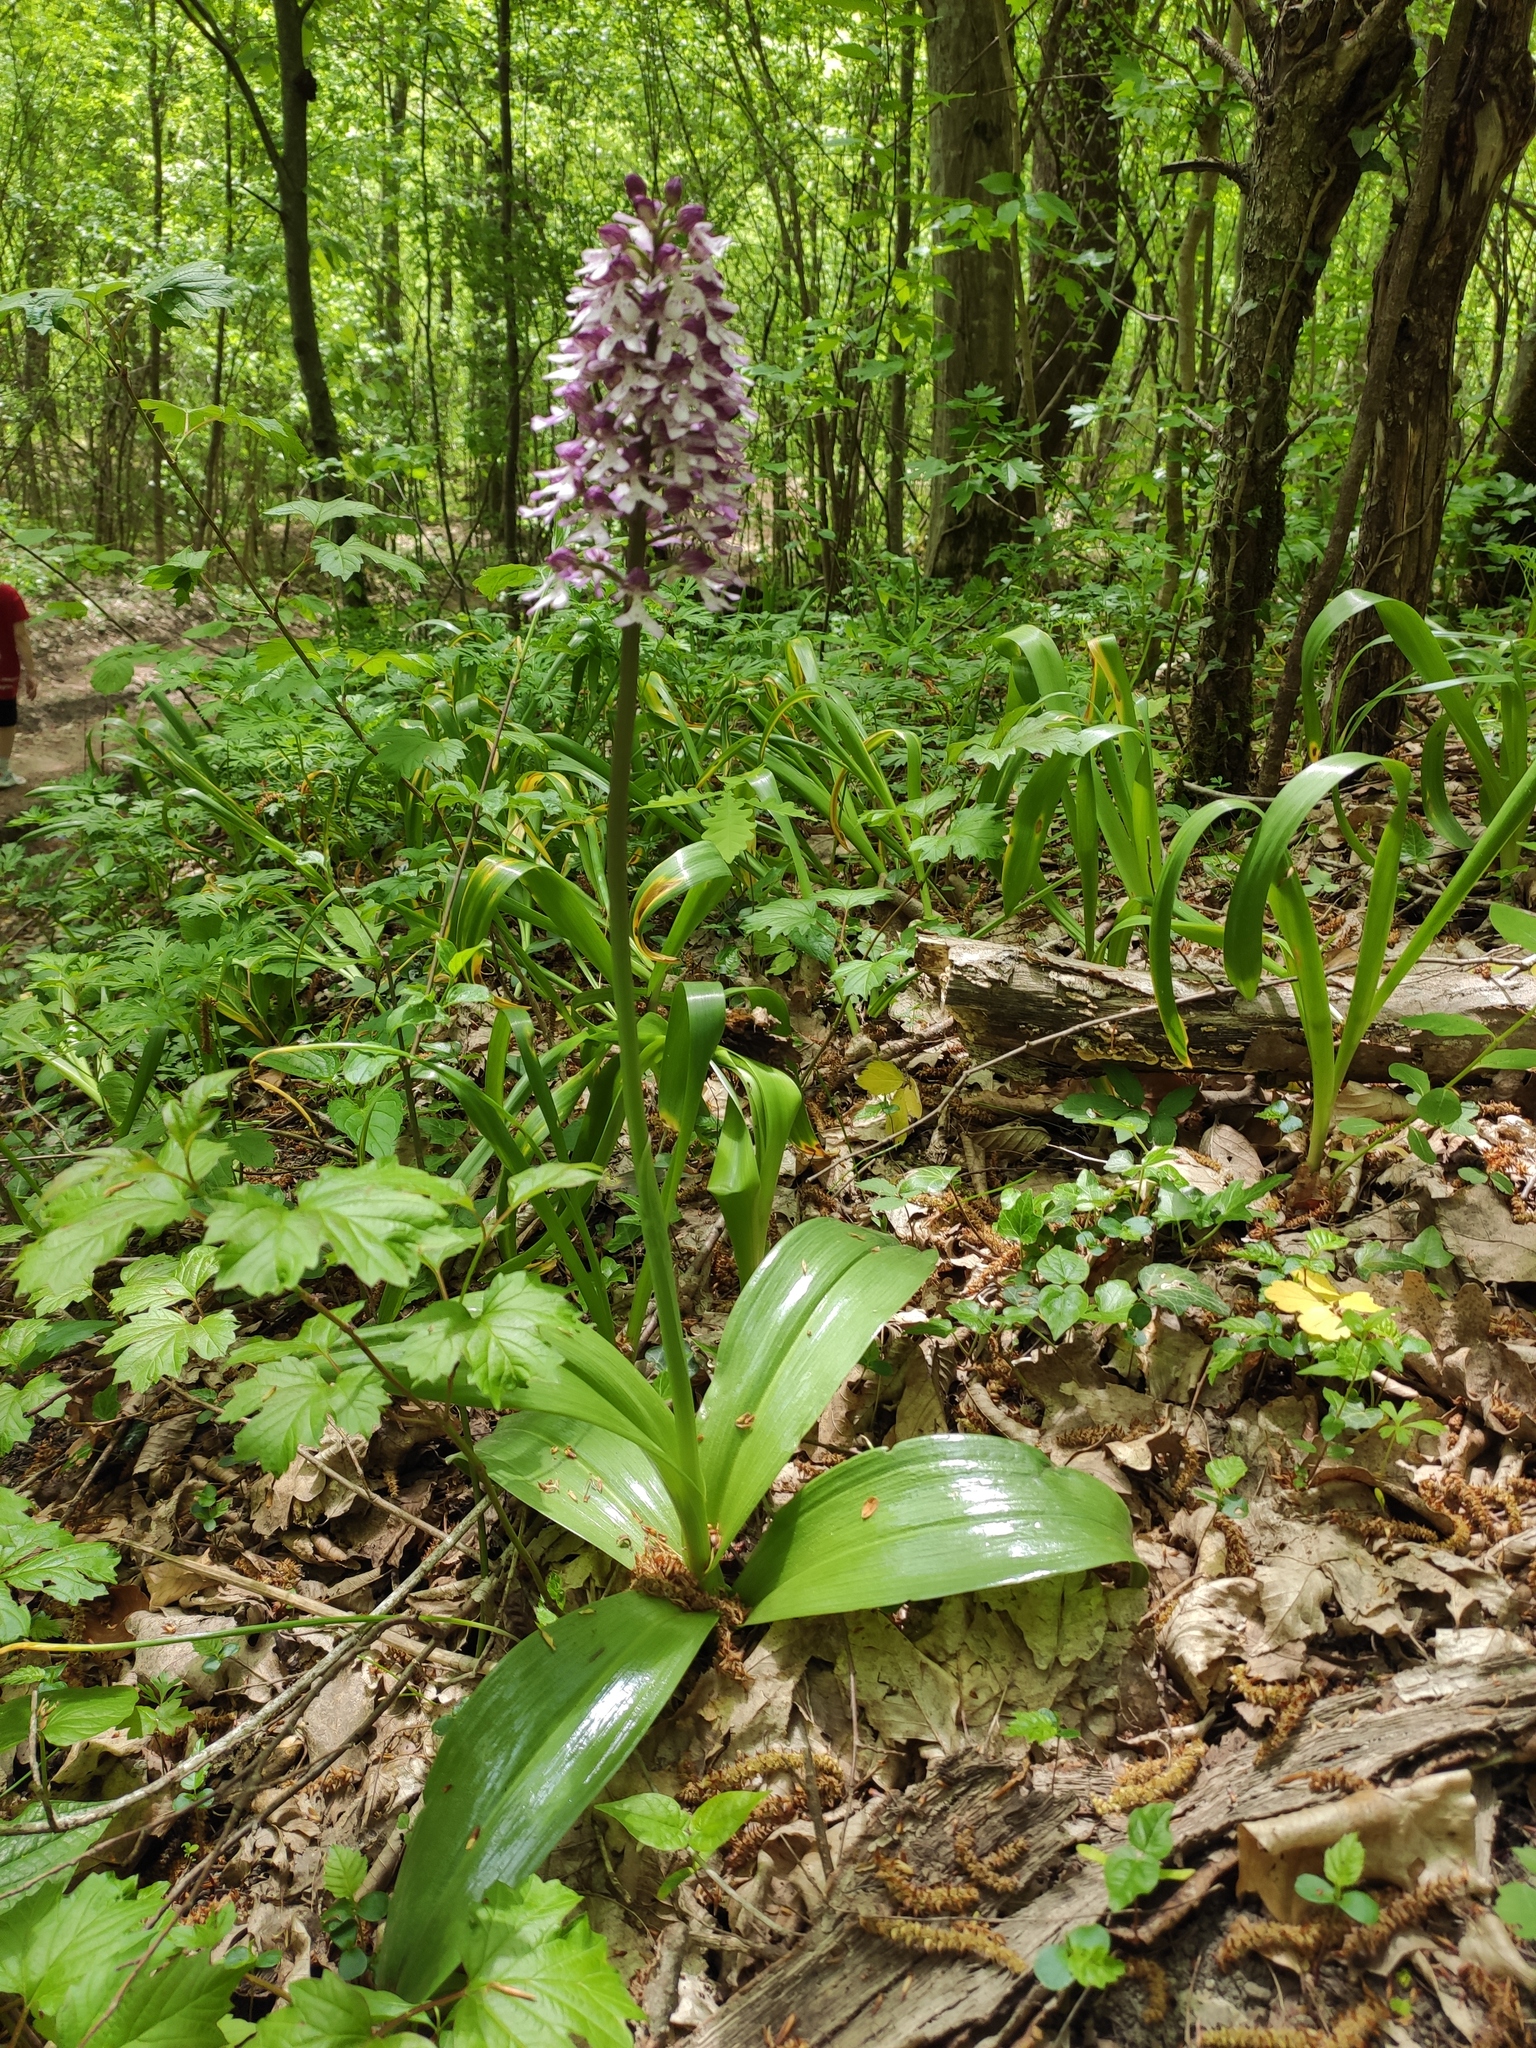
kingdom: Plantae
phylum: Tracheophyta
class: Liliopsida
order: Asparagales
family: Orchidaceae
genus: Orchis
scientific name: Orchis purpurea
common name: Lady orchid
